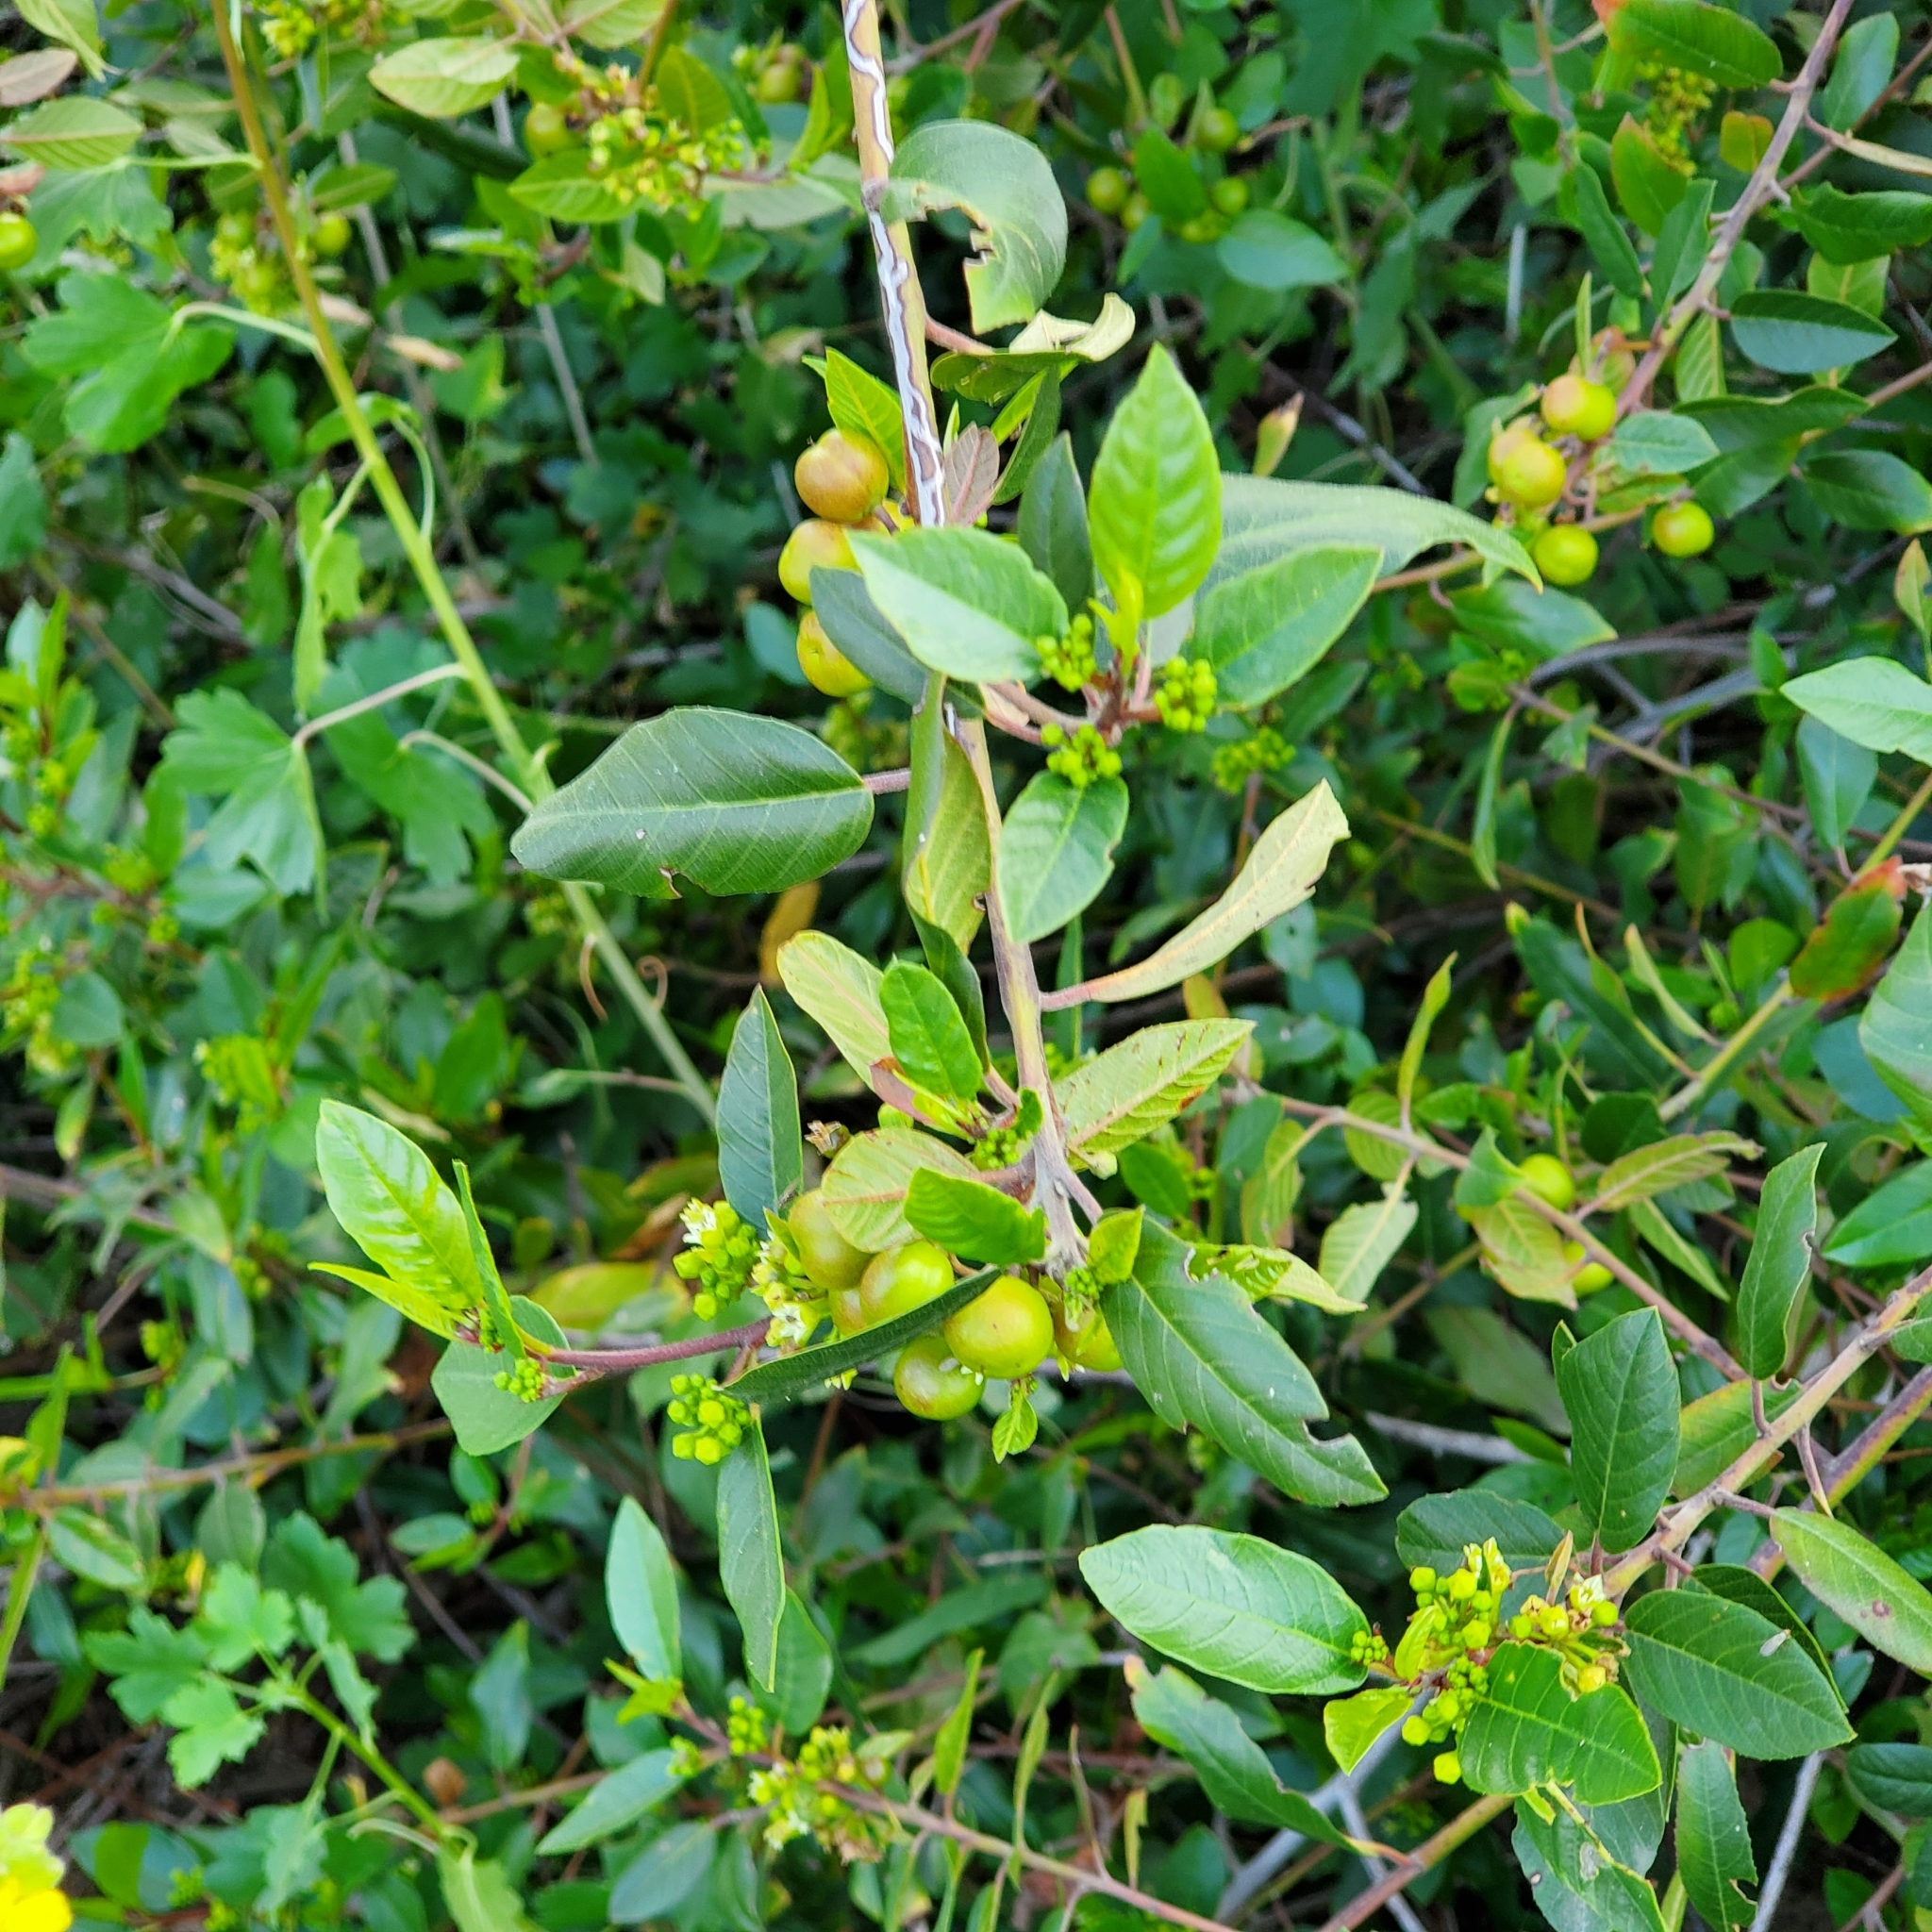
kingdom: Plantae
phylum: Tracheophyta
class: Magnoliopsida
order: Rosales
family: Rhamnaceae
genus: Frangula
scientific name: Frangula californica
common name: California buckthorn
